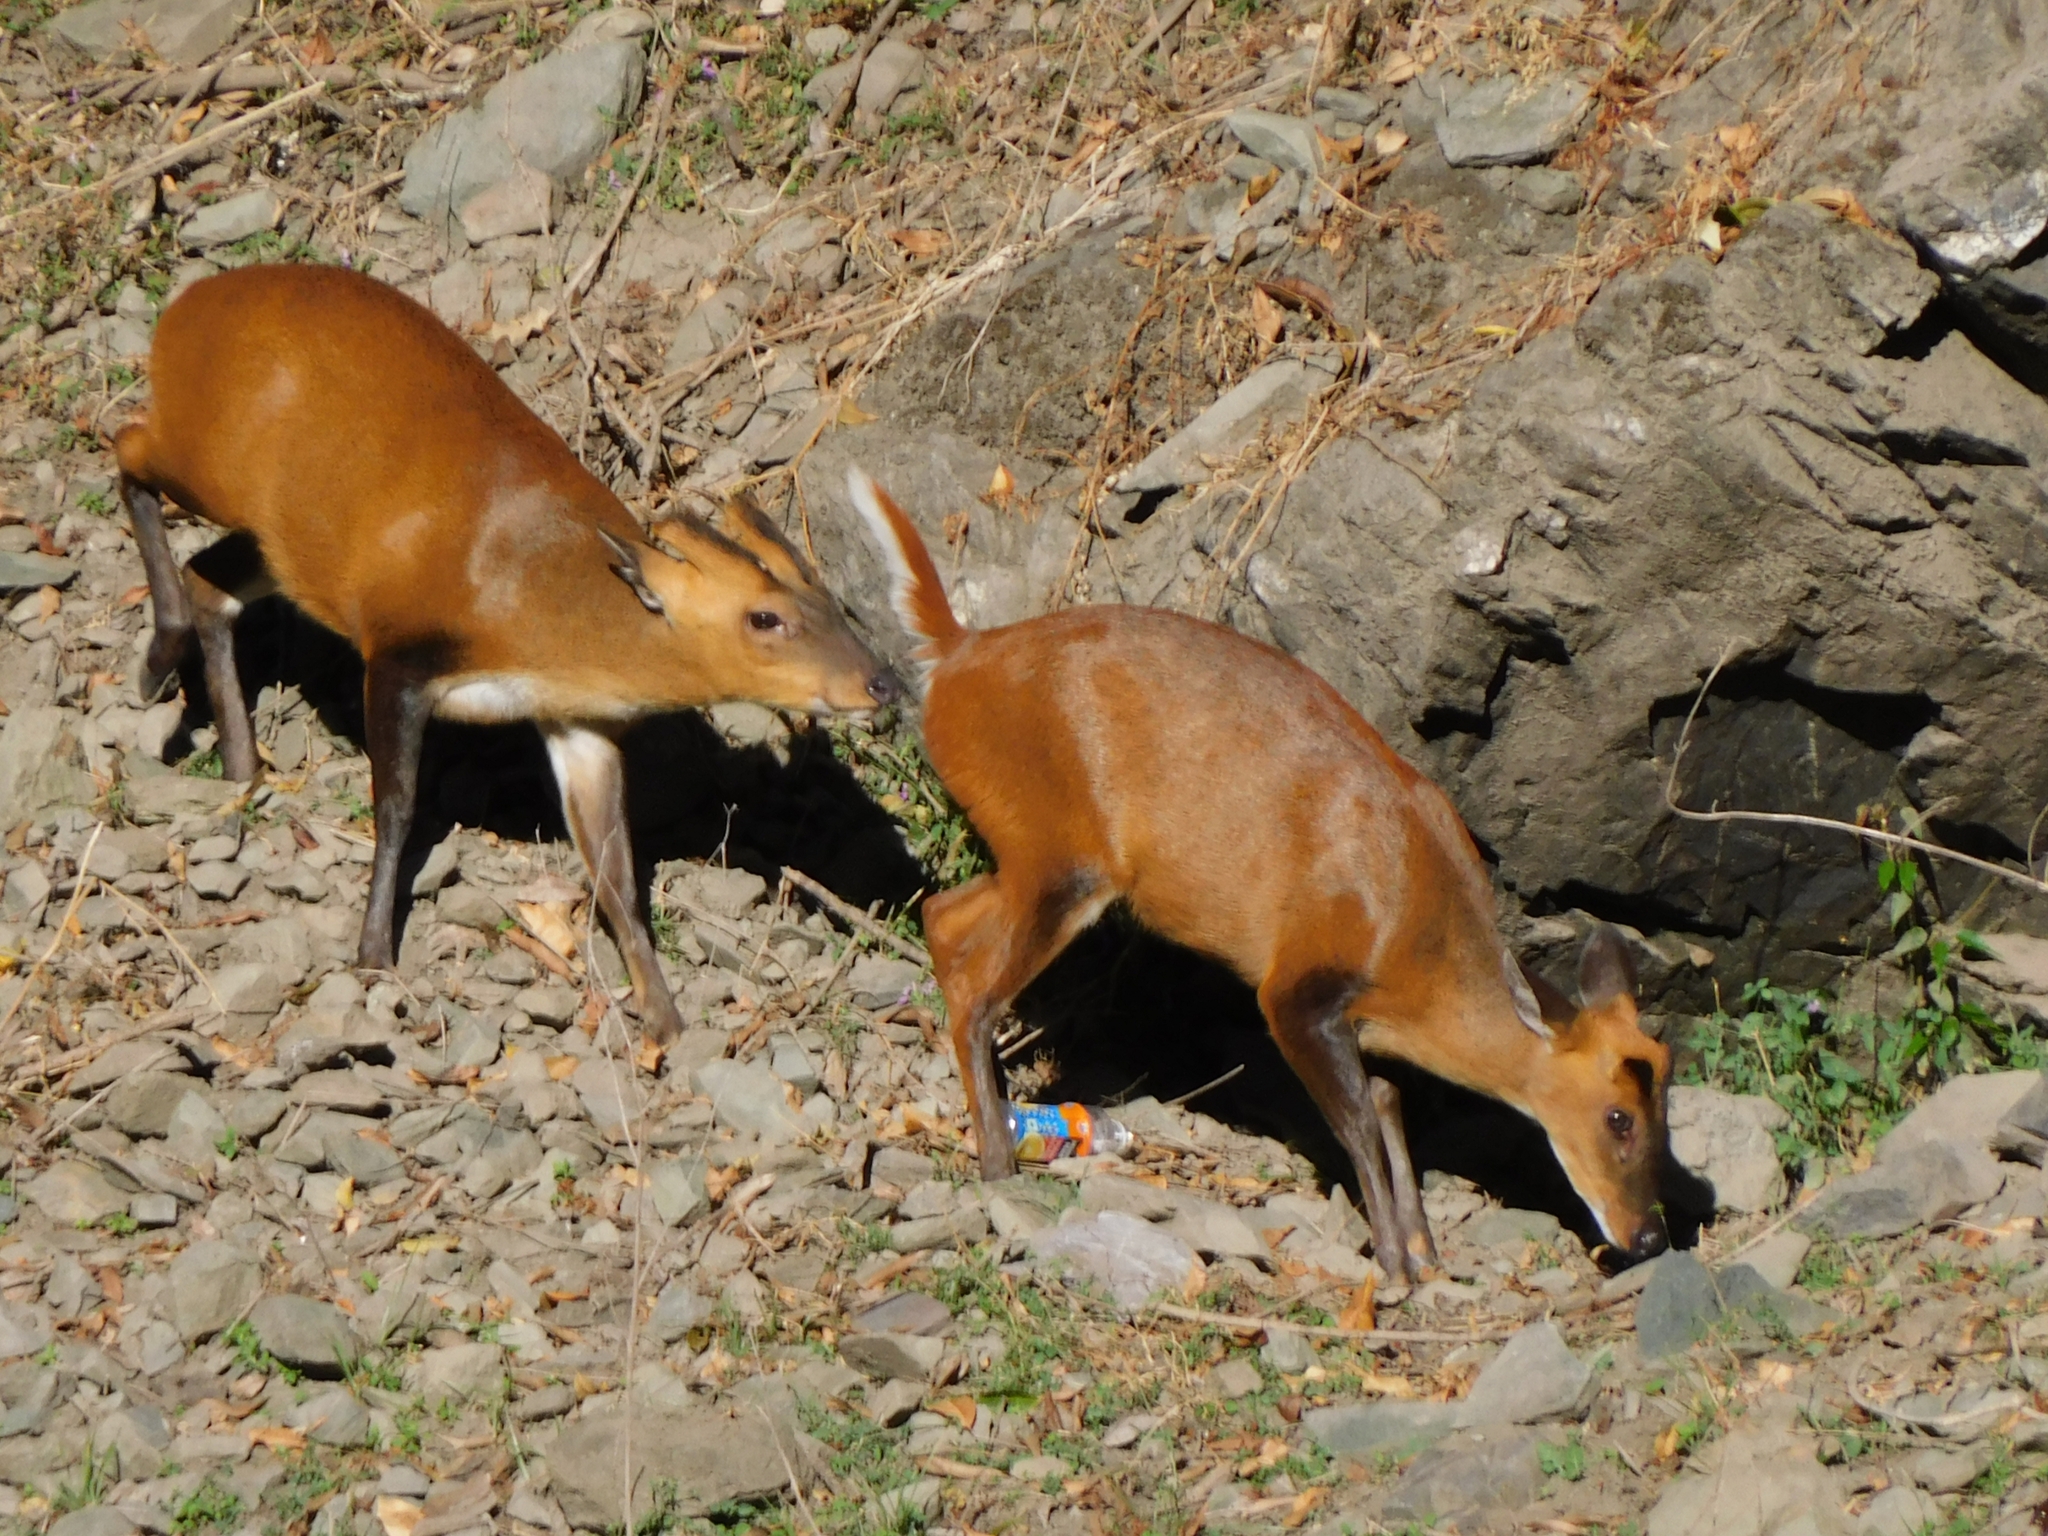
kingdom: Animalia
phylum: Chordata
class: Mammalia
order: Artiodactyla
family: Cervidae
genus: Muntiacus
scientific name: Muntiacus muntjak
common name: Indian muntjac
